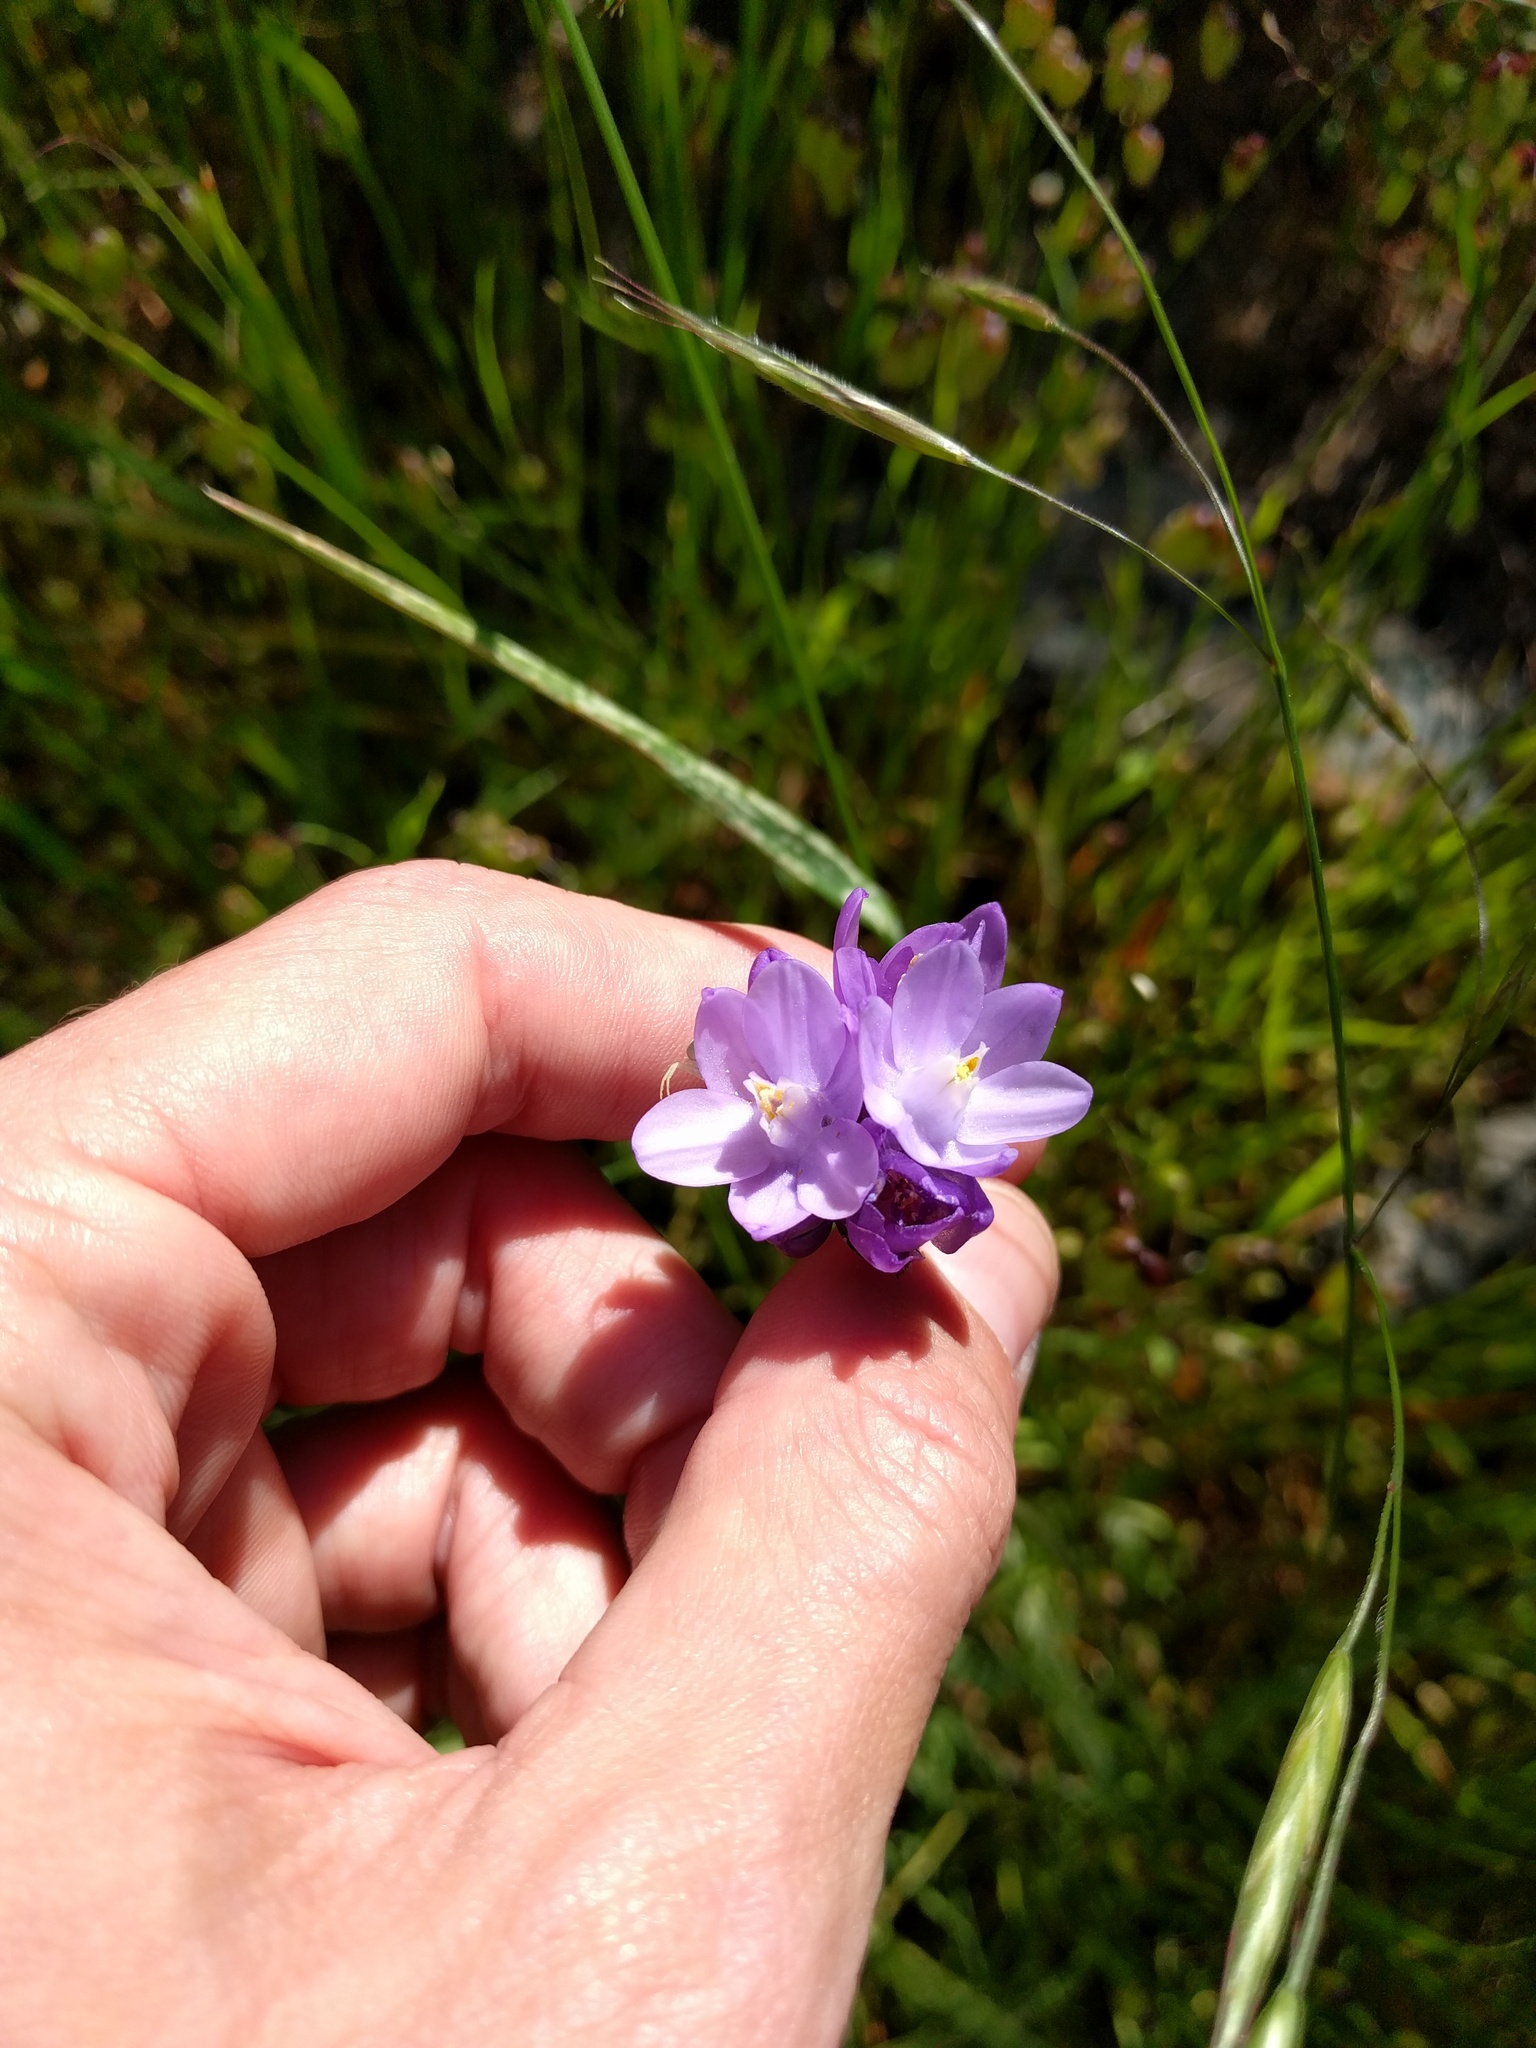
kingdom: Plantae
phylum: Tracheophyta
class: Liliopsida
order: Asparagales
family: Asparagaceae
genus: Dipterostemon
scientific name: Dipterostemon capitatus
